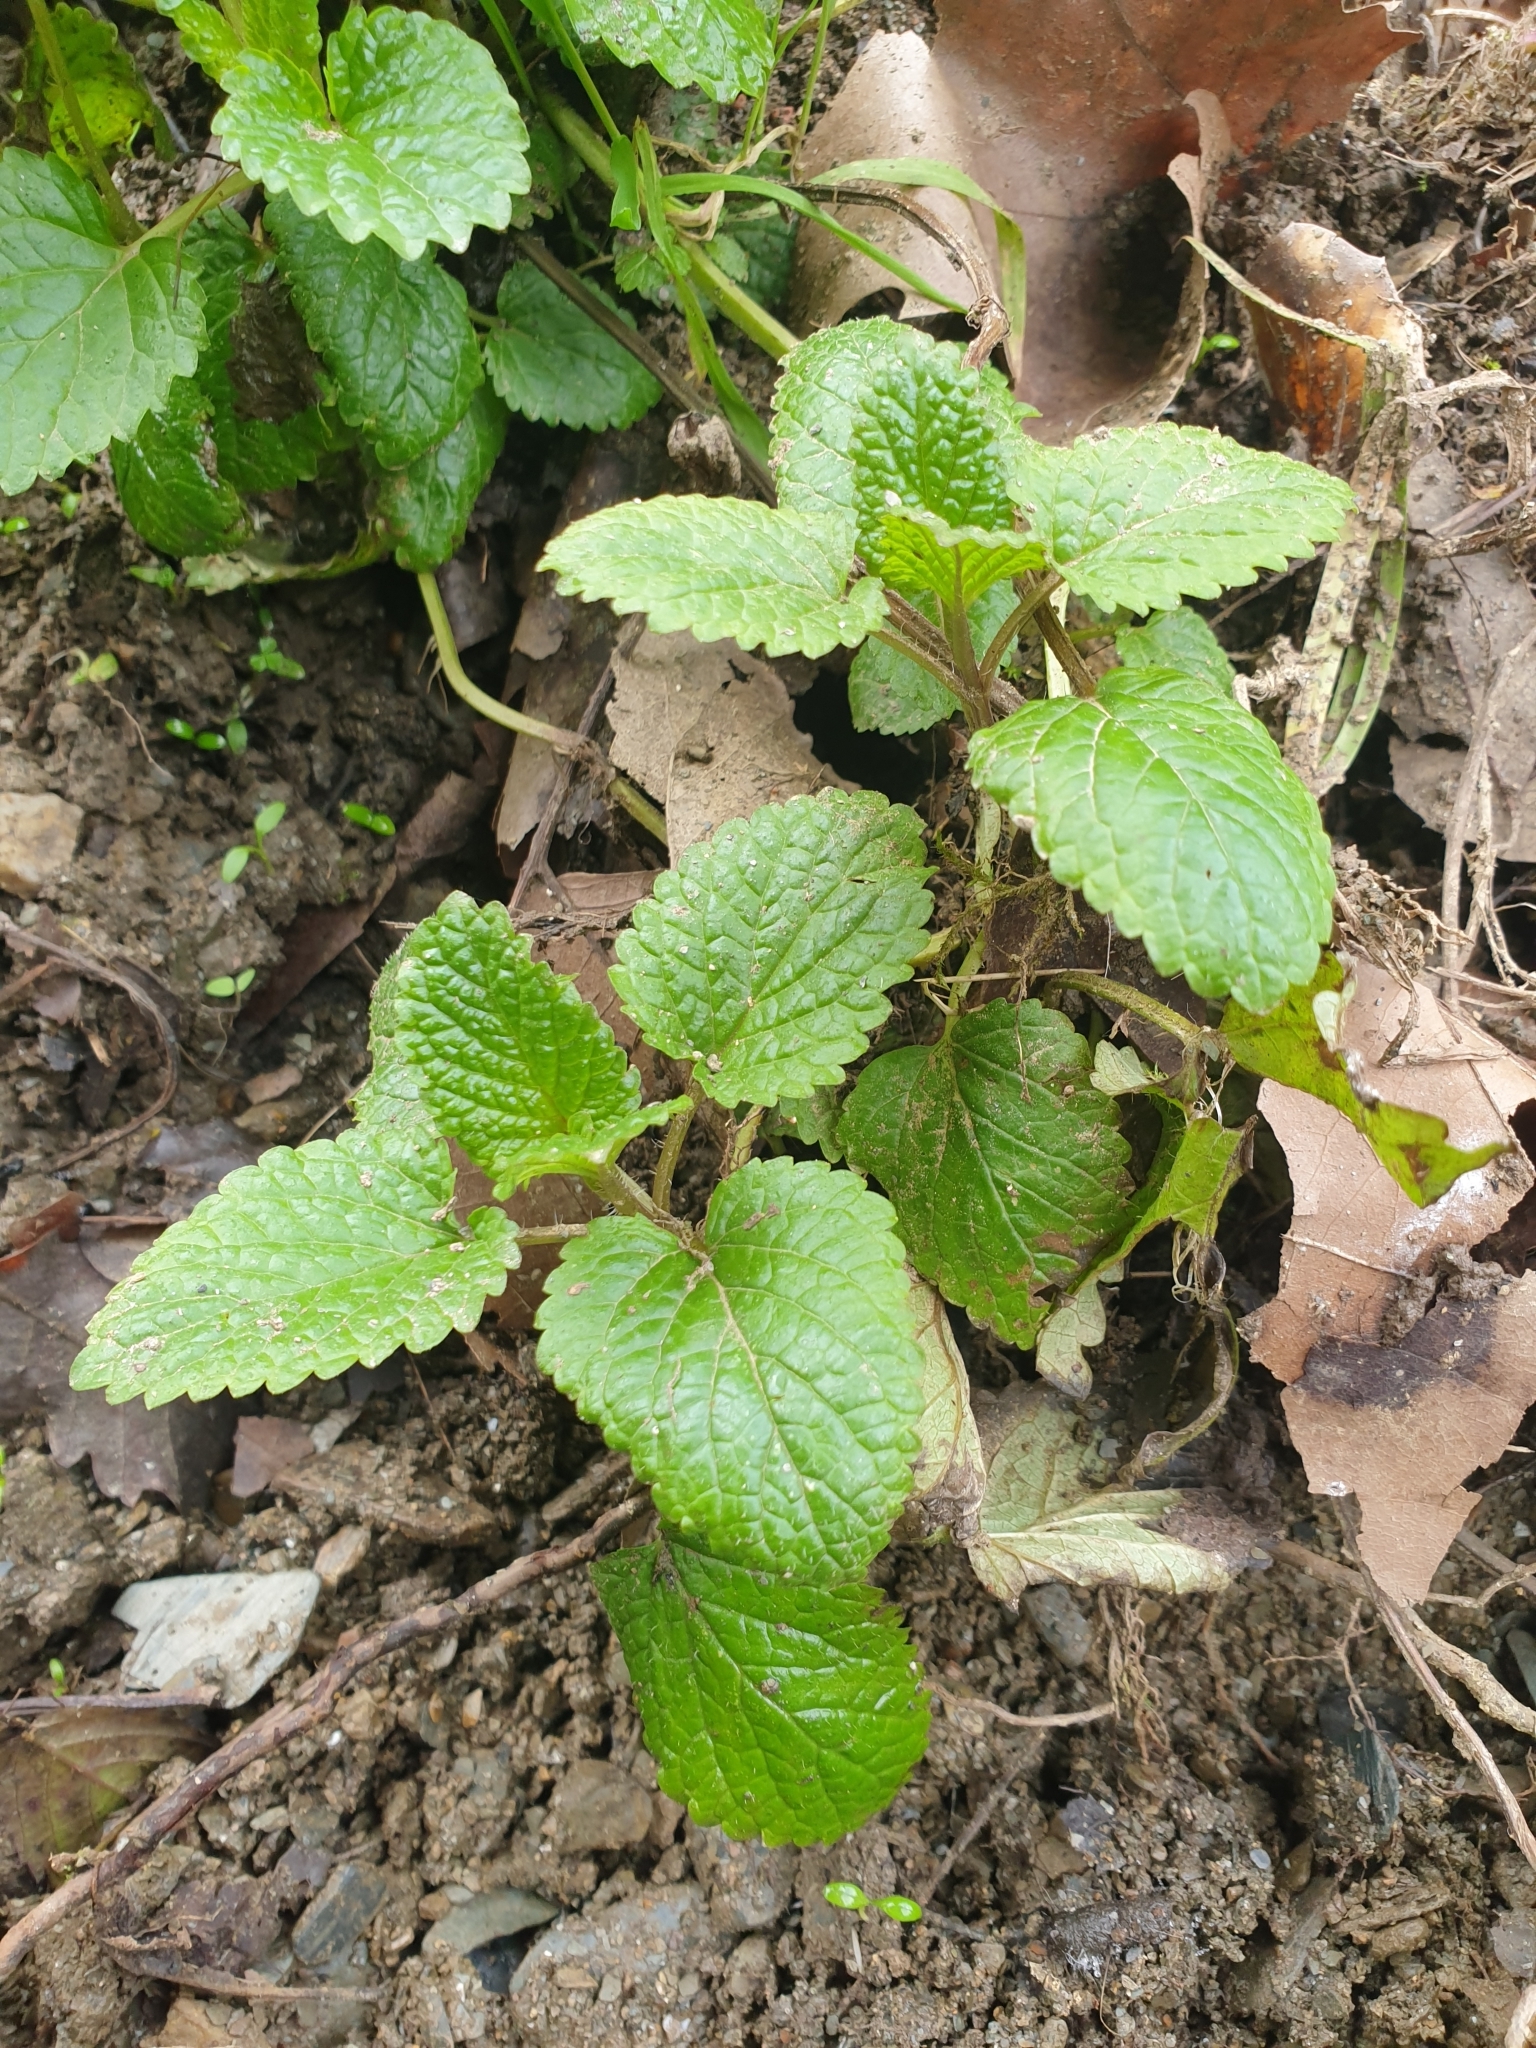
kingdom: Plantae
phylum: Tracheophyta
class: Magnoliopsida
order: Lamiales
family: Lamiaceae
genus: Melissa
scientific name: Melissa officinalis
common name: Balm
